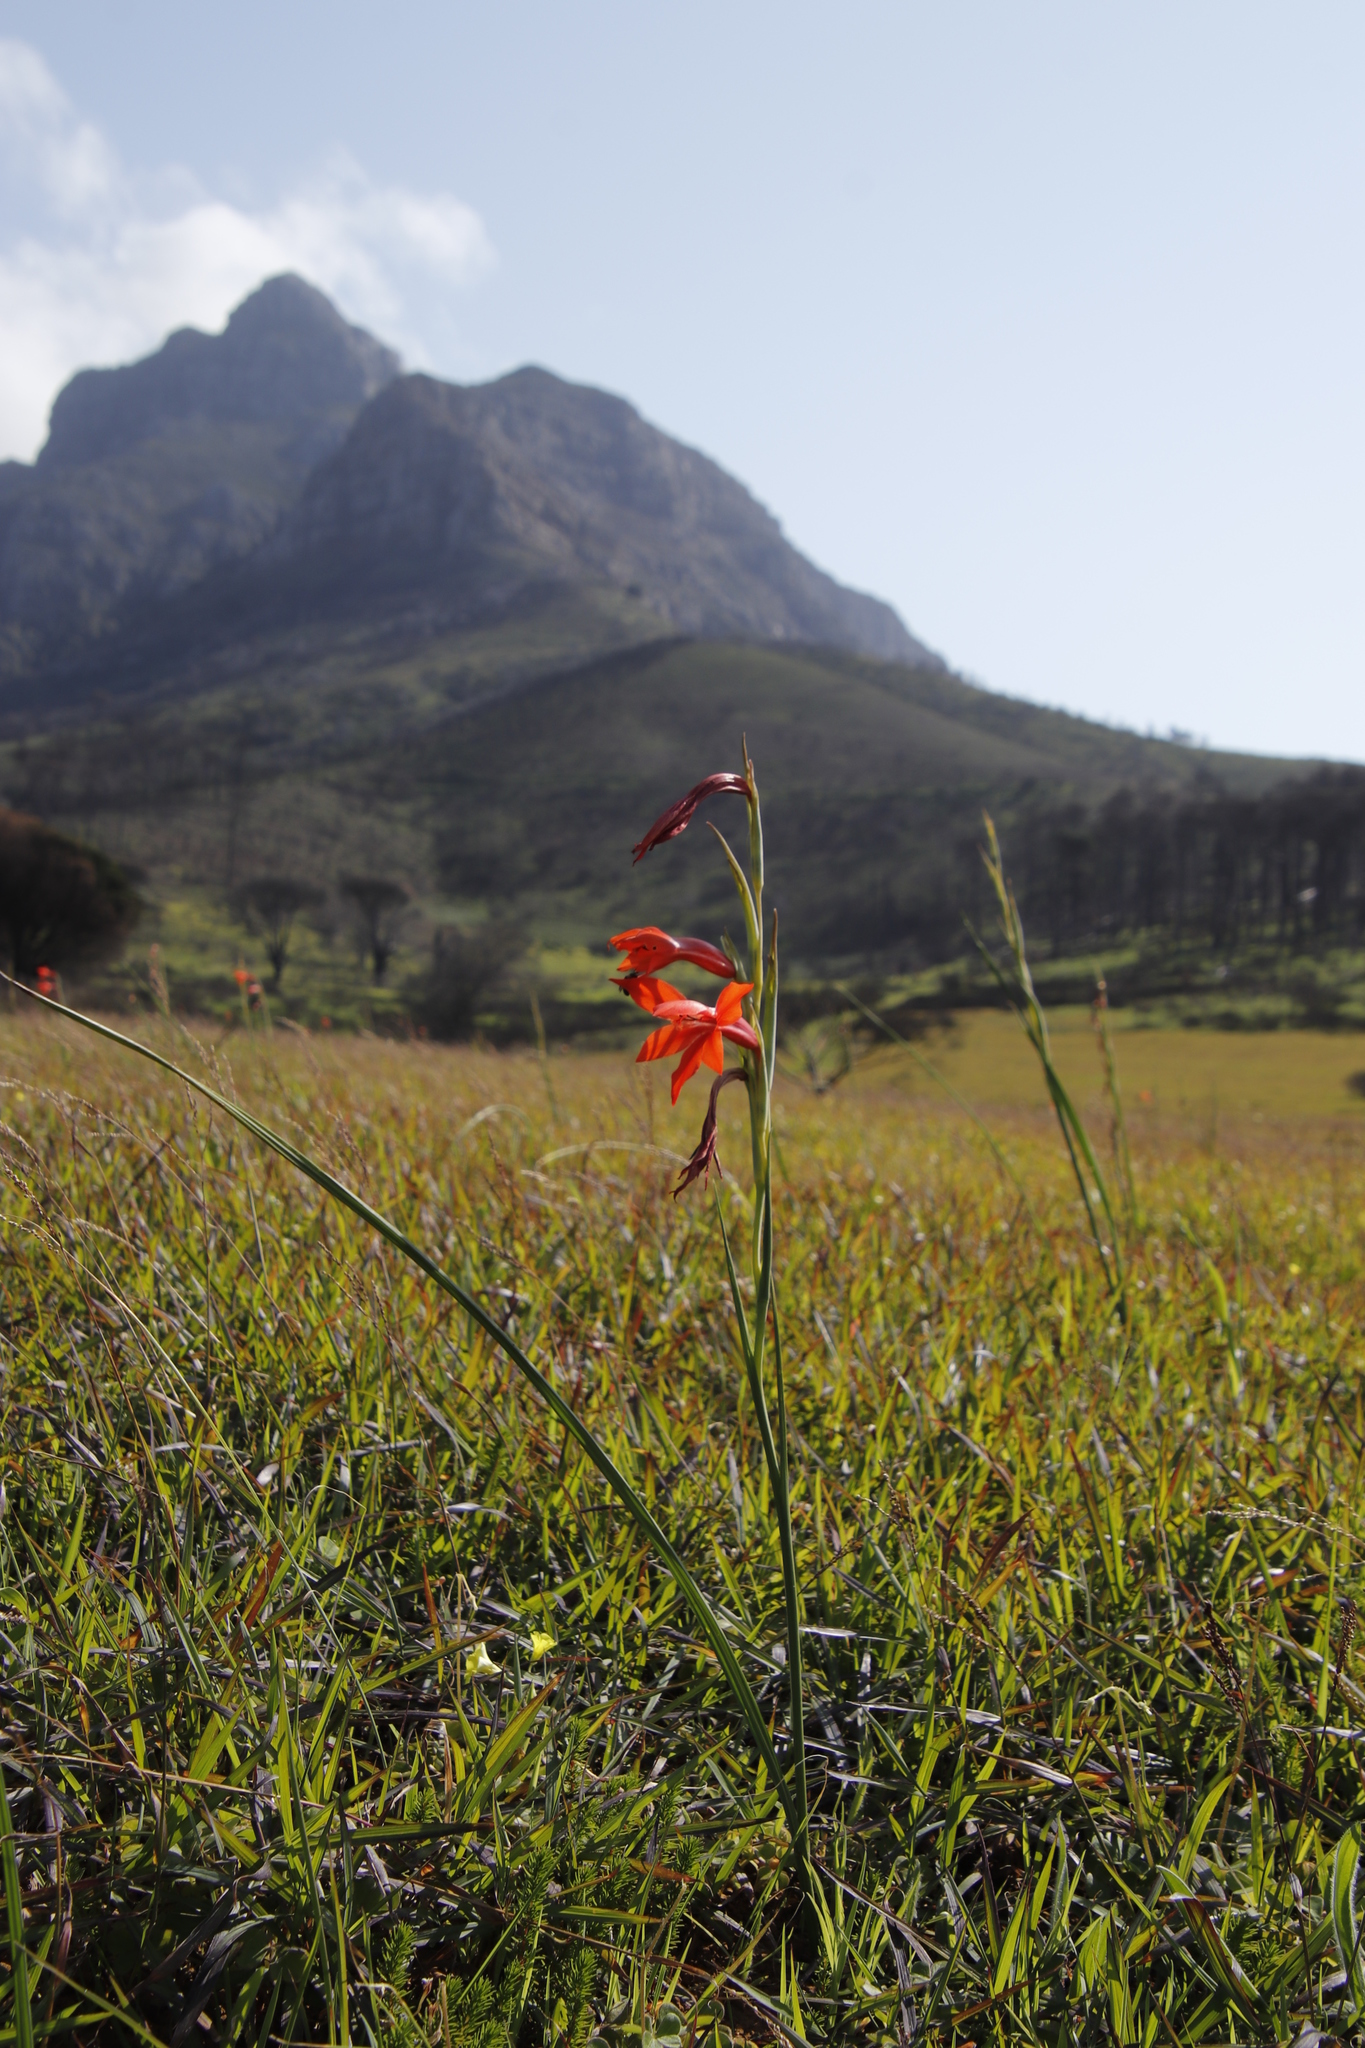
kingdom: Plantae
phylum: Tracheophyta
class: Liliopsida
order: Asparagales
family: Iridaceae
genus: Gladiolus
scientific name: Gladiolus watsonius
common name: Red afrikaner
